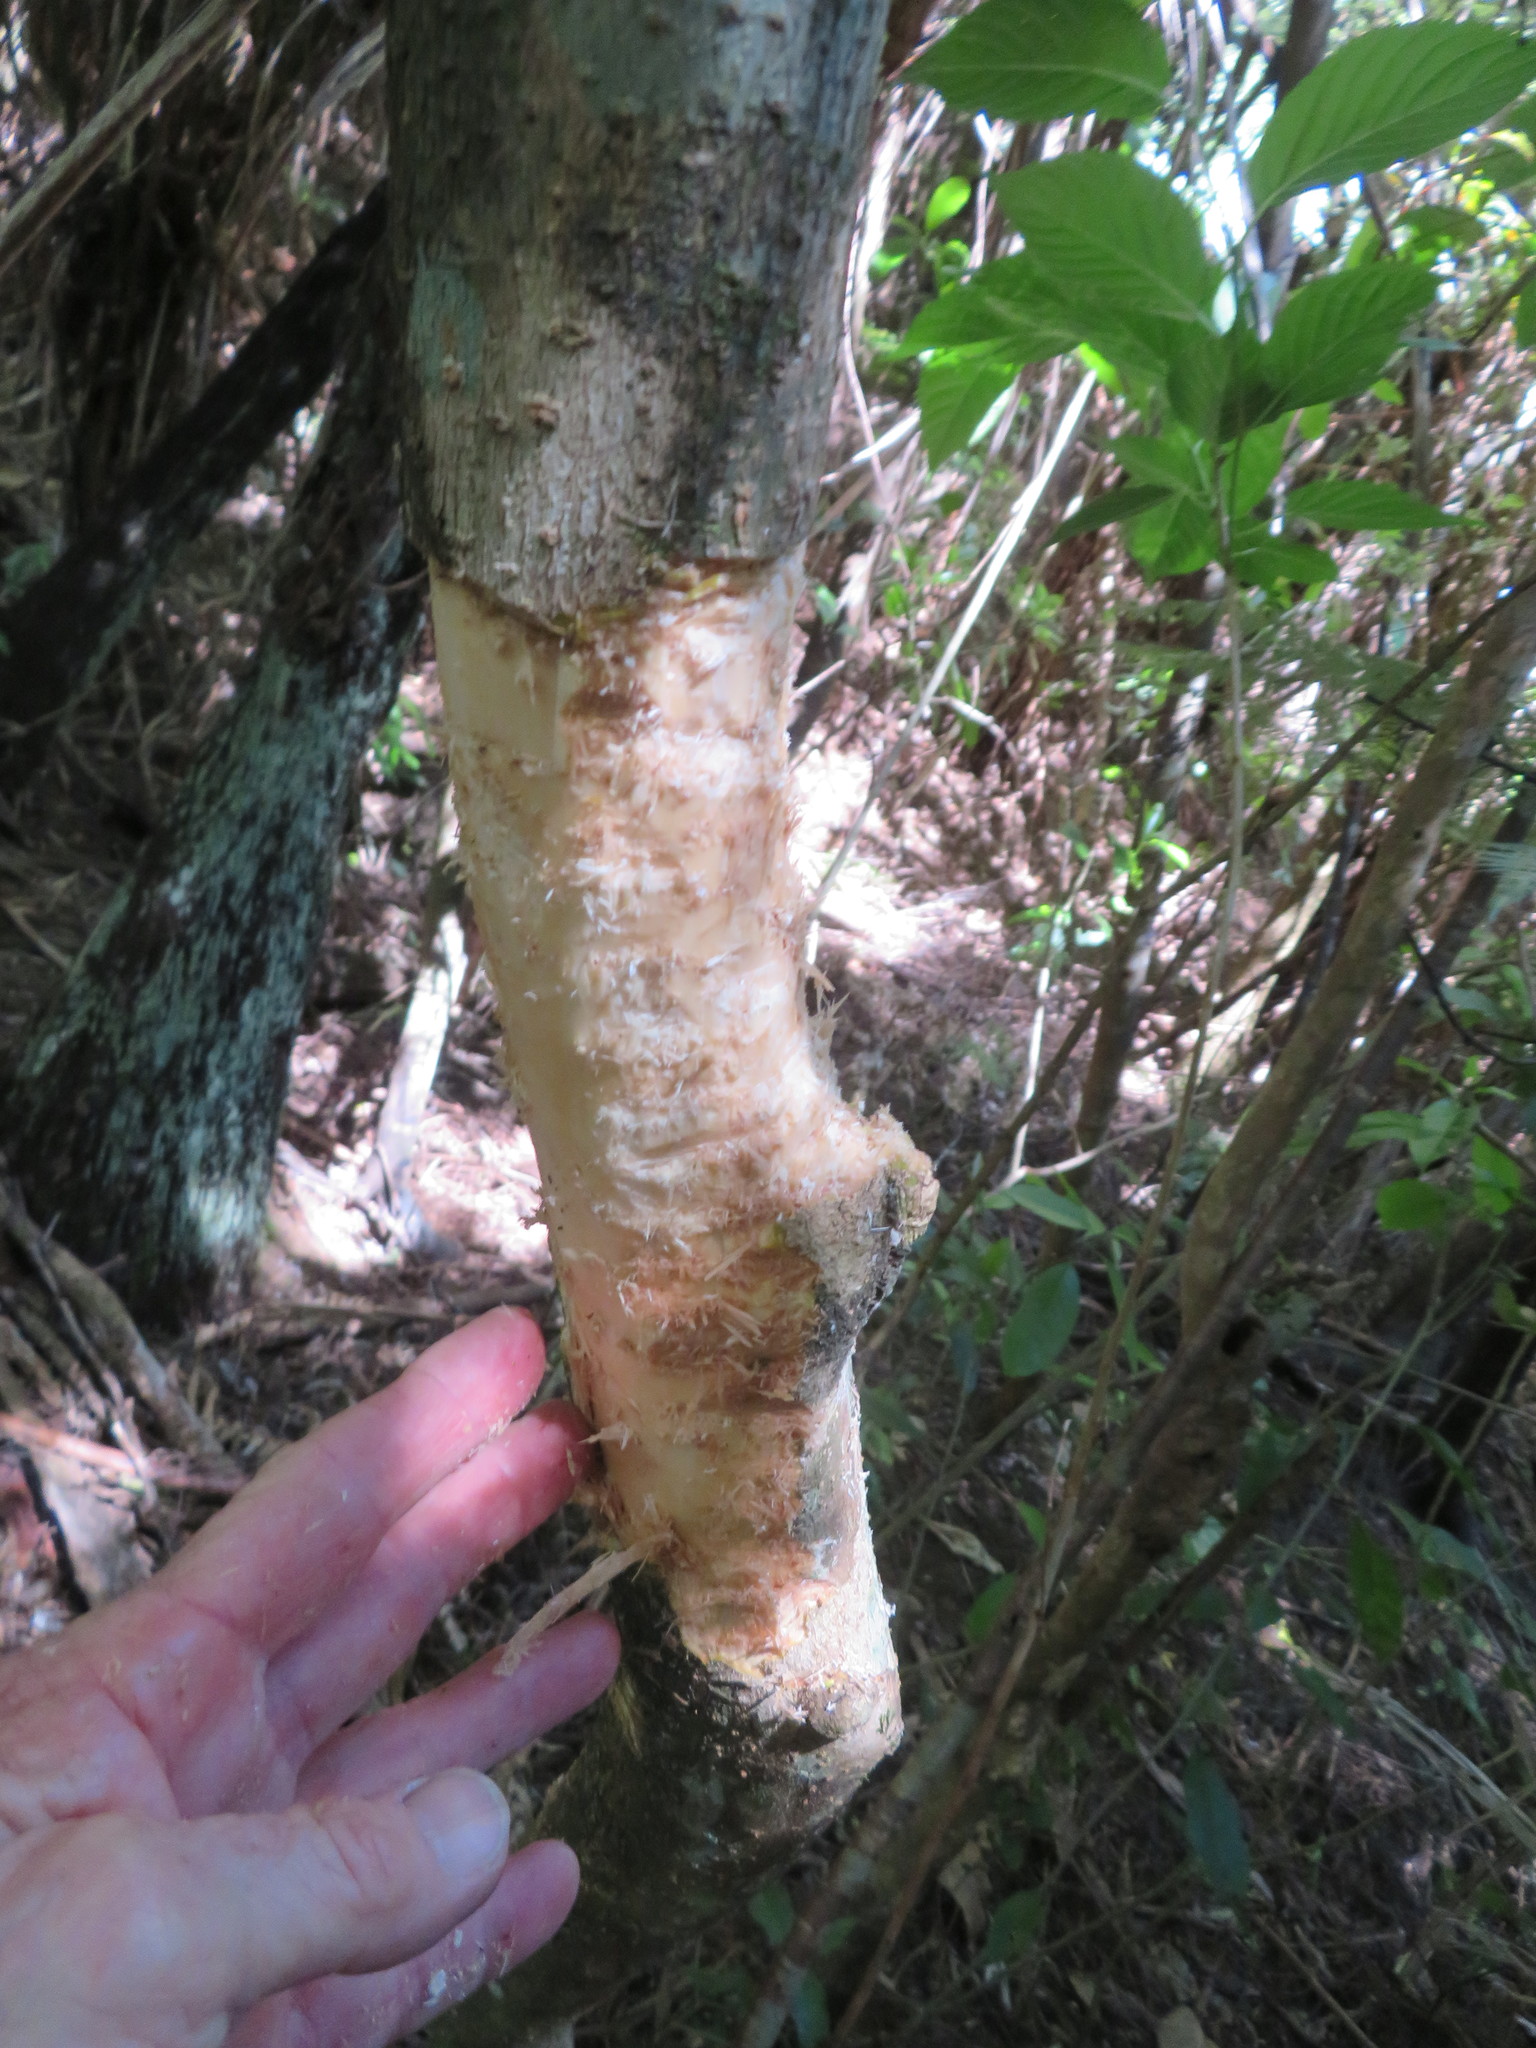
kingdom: Plantae
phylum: Tracheophyta
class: Magnoliopsida
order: Lamiales
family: Oleaceae
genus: Ligustrum
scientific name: Ligustrum lucidum
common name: Glossy privet
